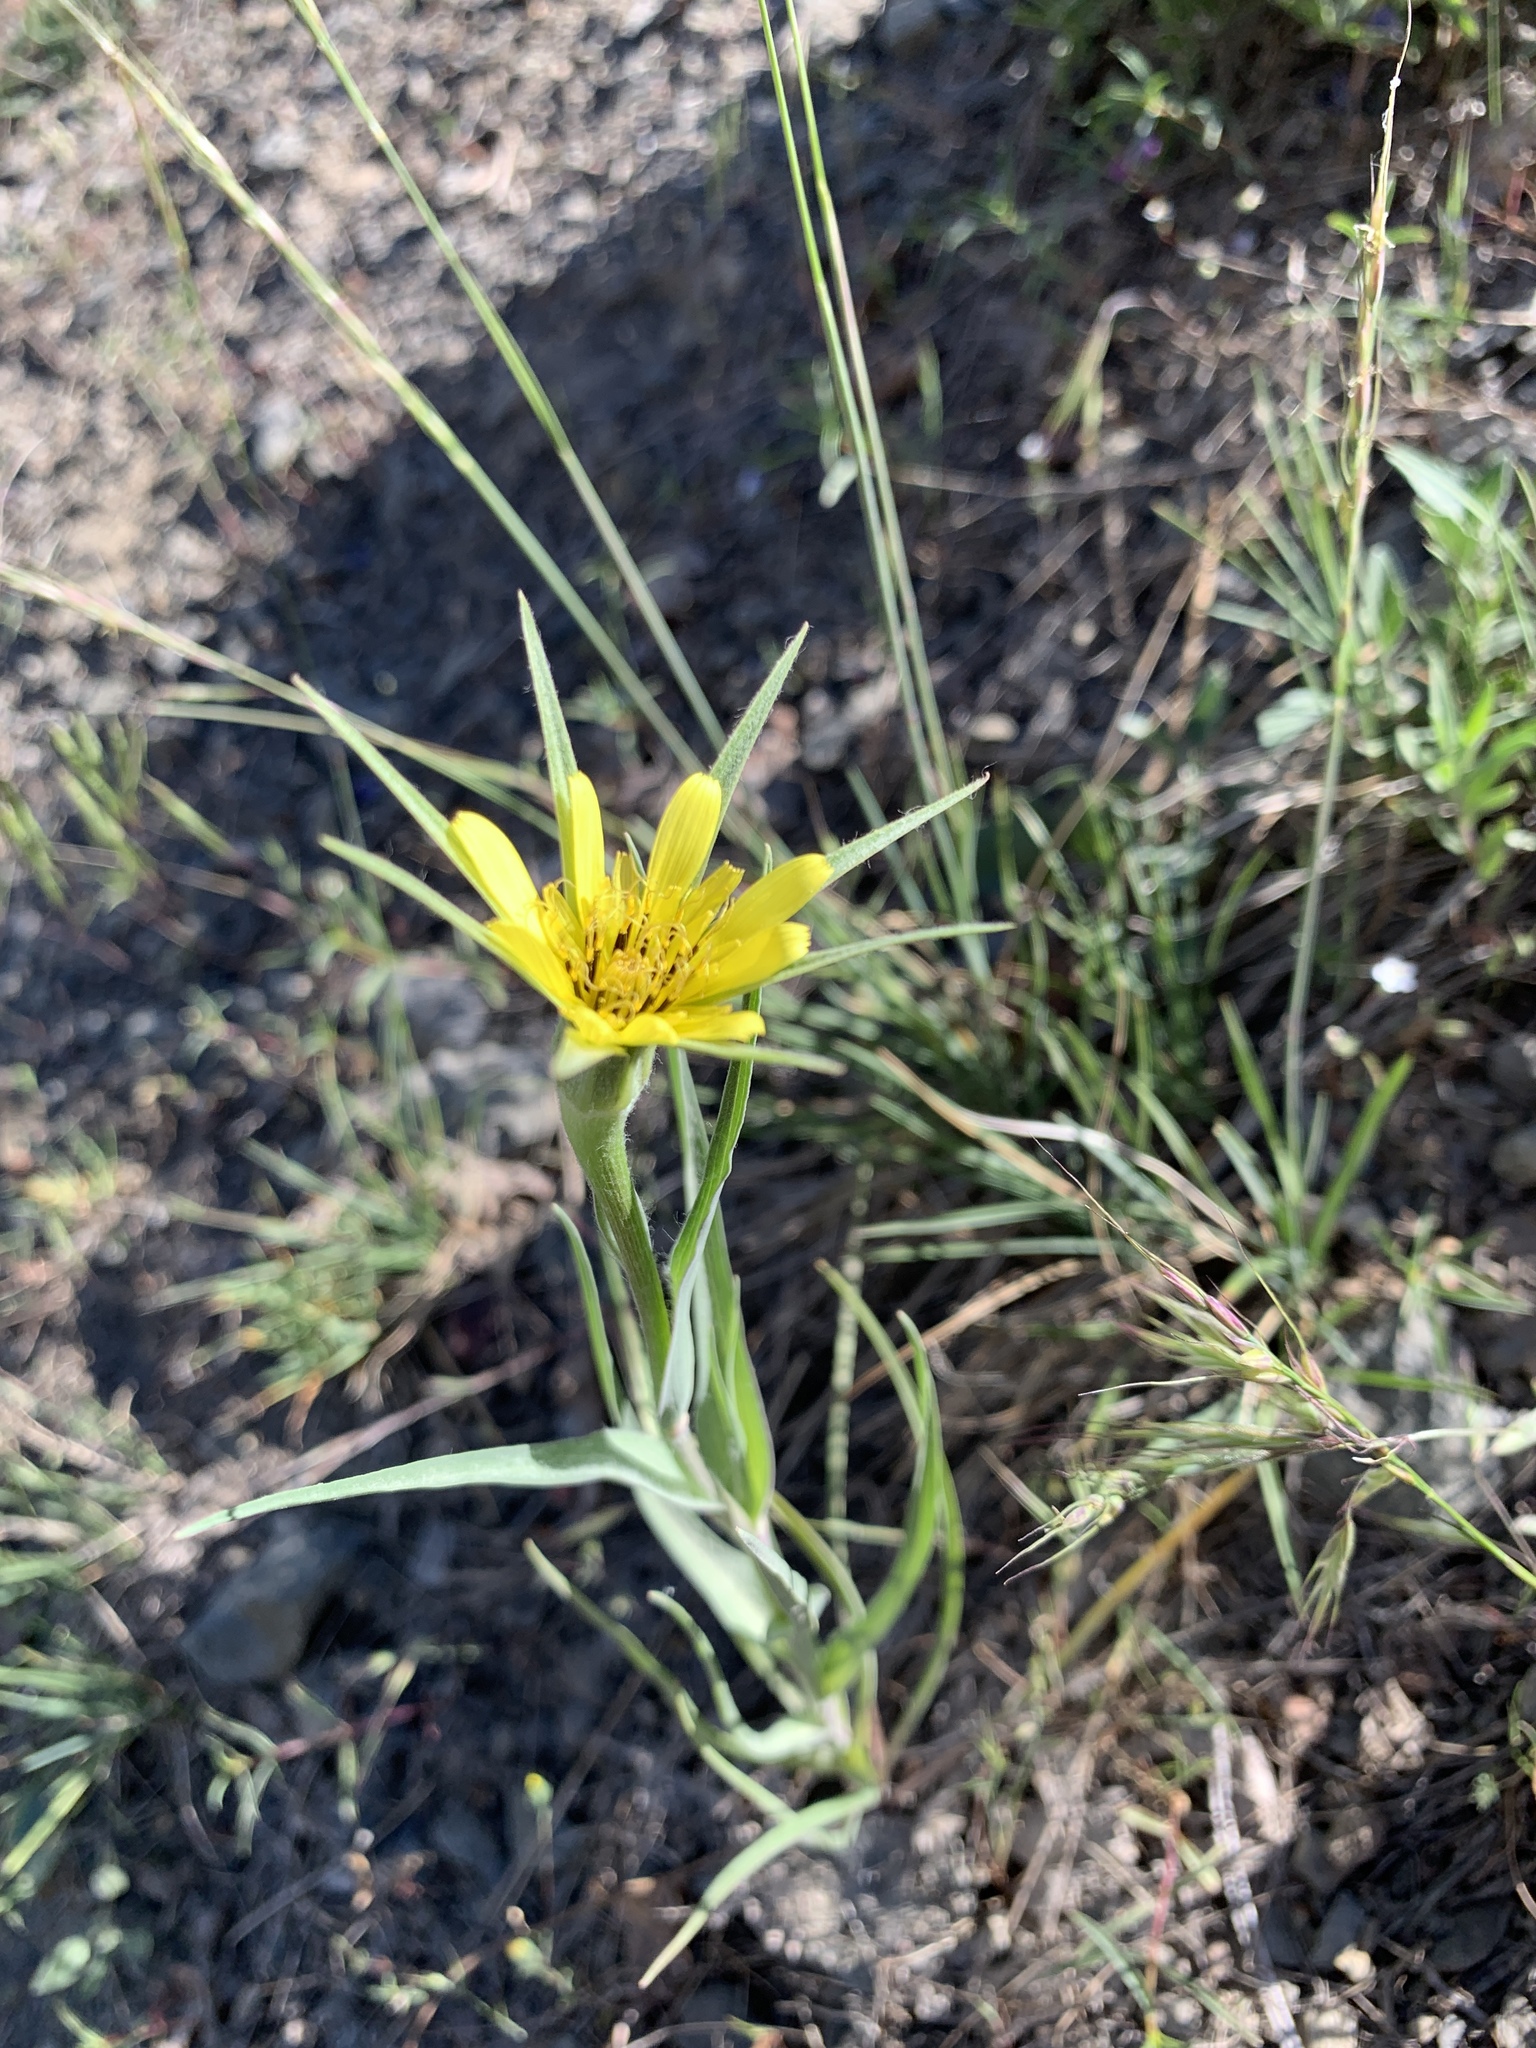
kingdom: Plantae
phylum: Tracheophyta
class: Magnoliopsida
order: Asterales
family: Asteraceae
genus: Tragopogon
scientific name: Tragopogon dubius
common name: Yellow salsify
